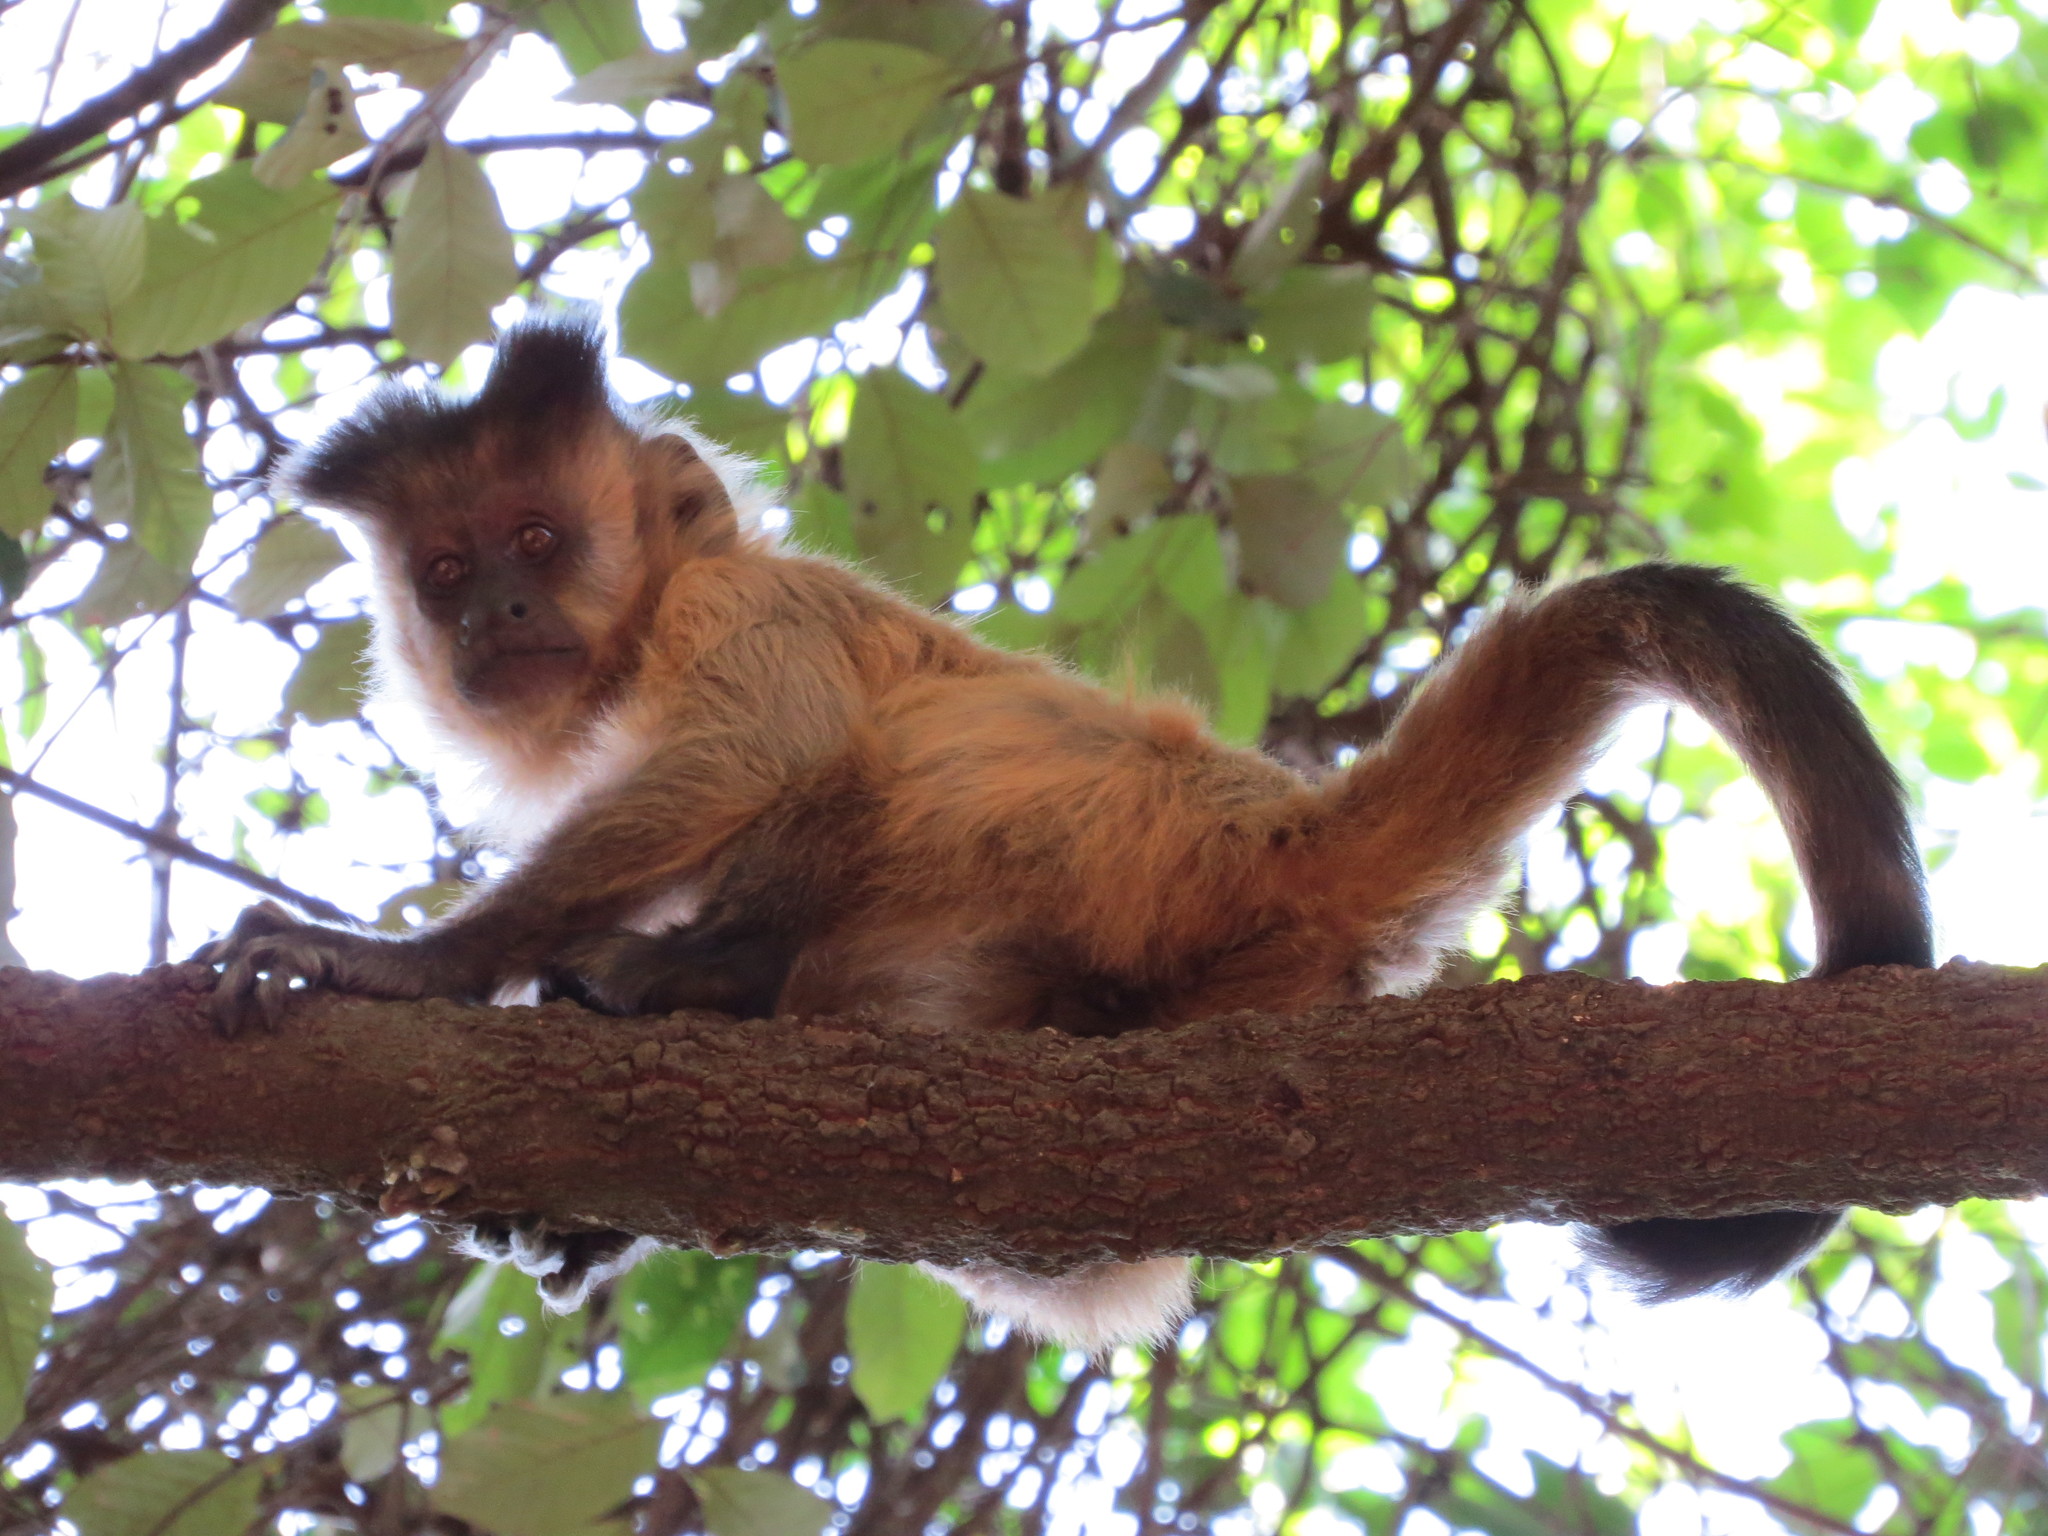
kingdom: Animalia
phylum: Chordata
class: Mammalia
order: Primates
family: Cebidae
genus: Sapajus
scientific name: Sapajus libidinosus
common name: Bearded capuchin
